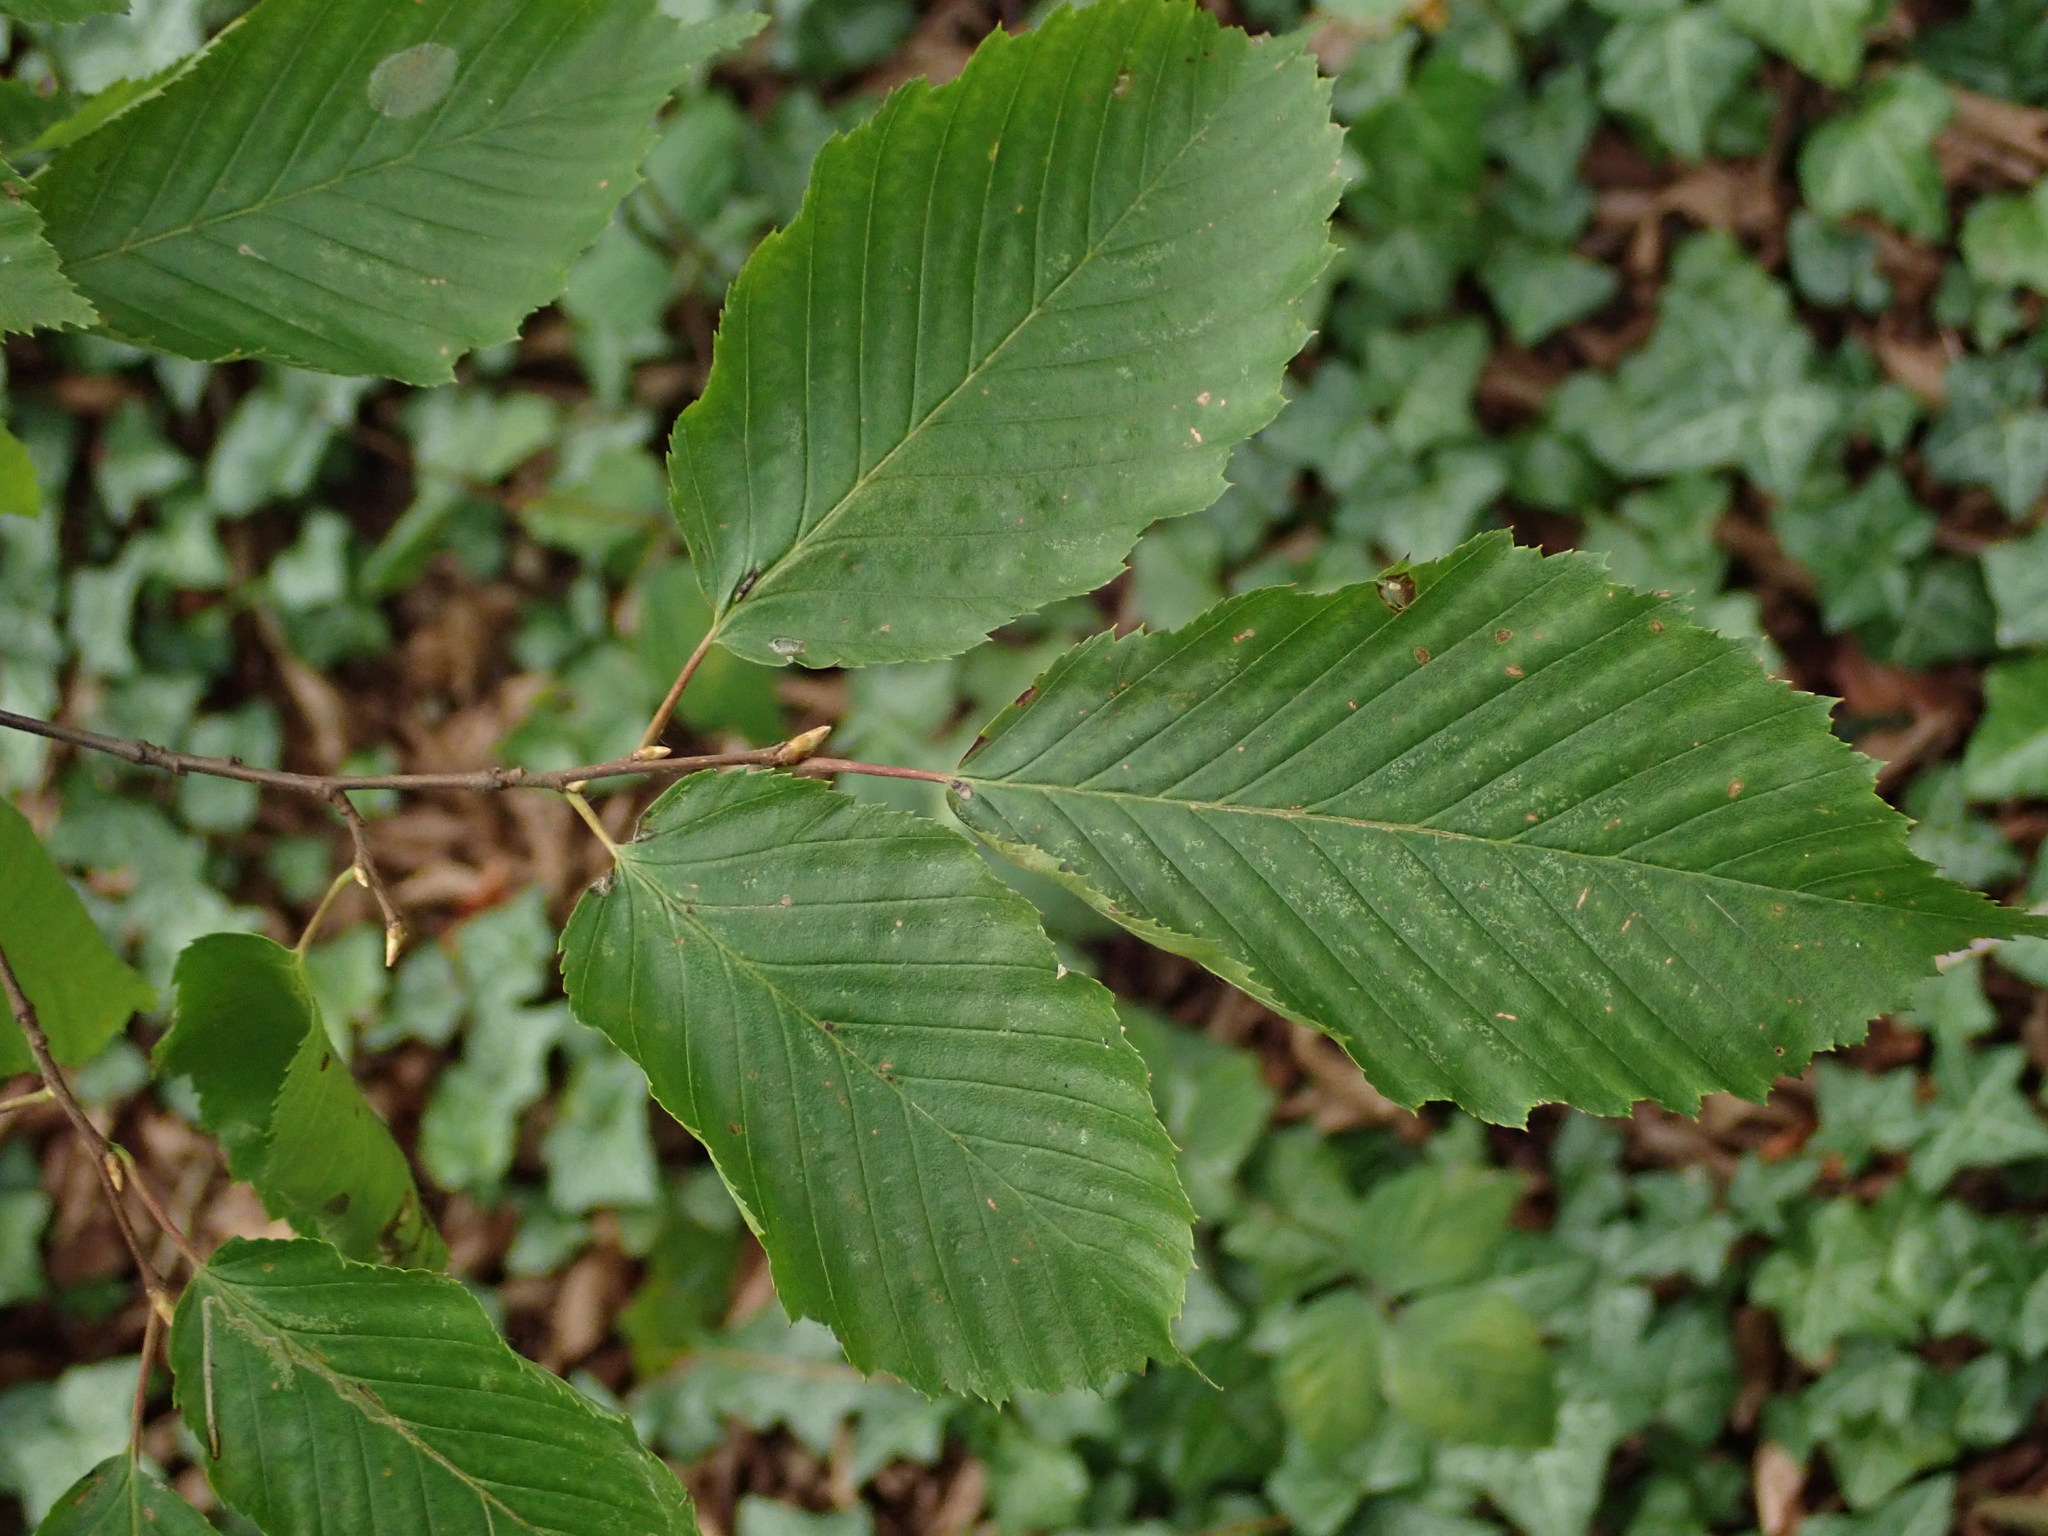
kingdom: Plantae
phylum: Tracheophyta
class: Magnoliopsida
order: Fagales
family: Betulaceae
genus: Carpinus
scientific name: Carpinus betulus
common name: Hornbeam
